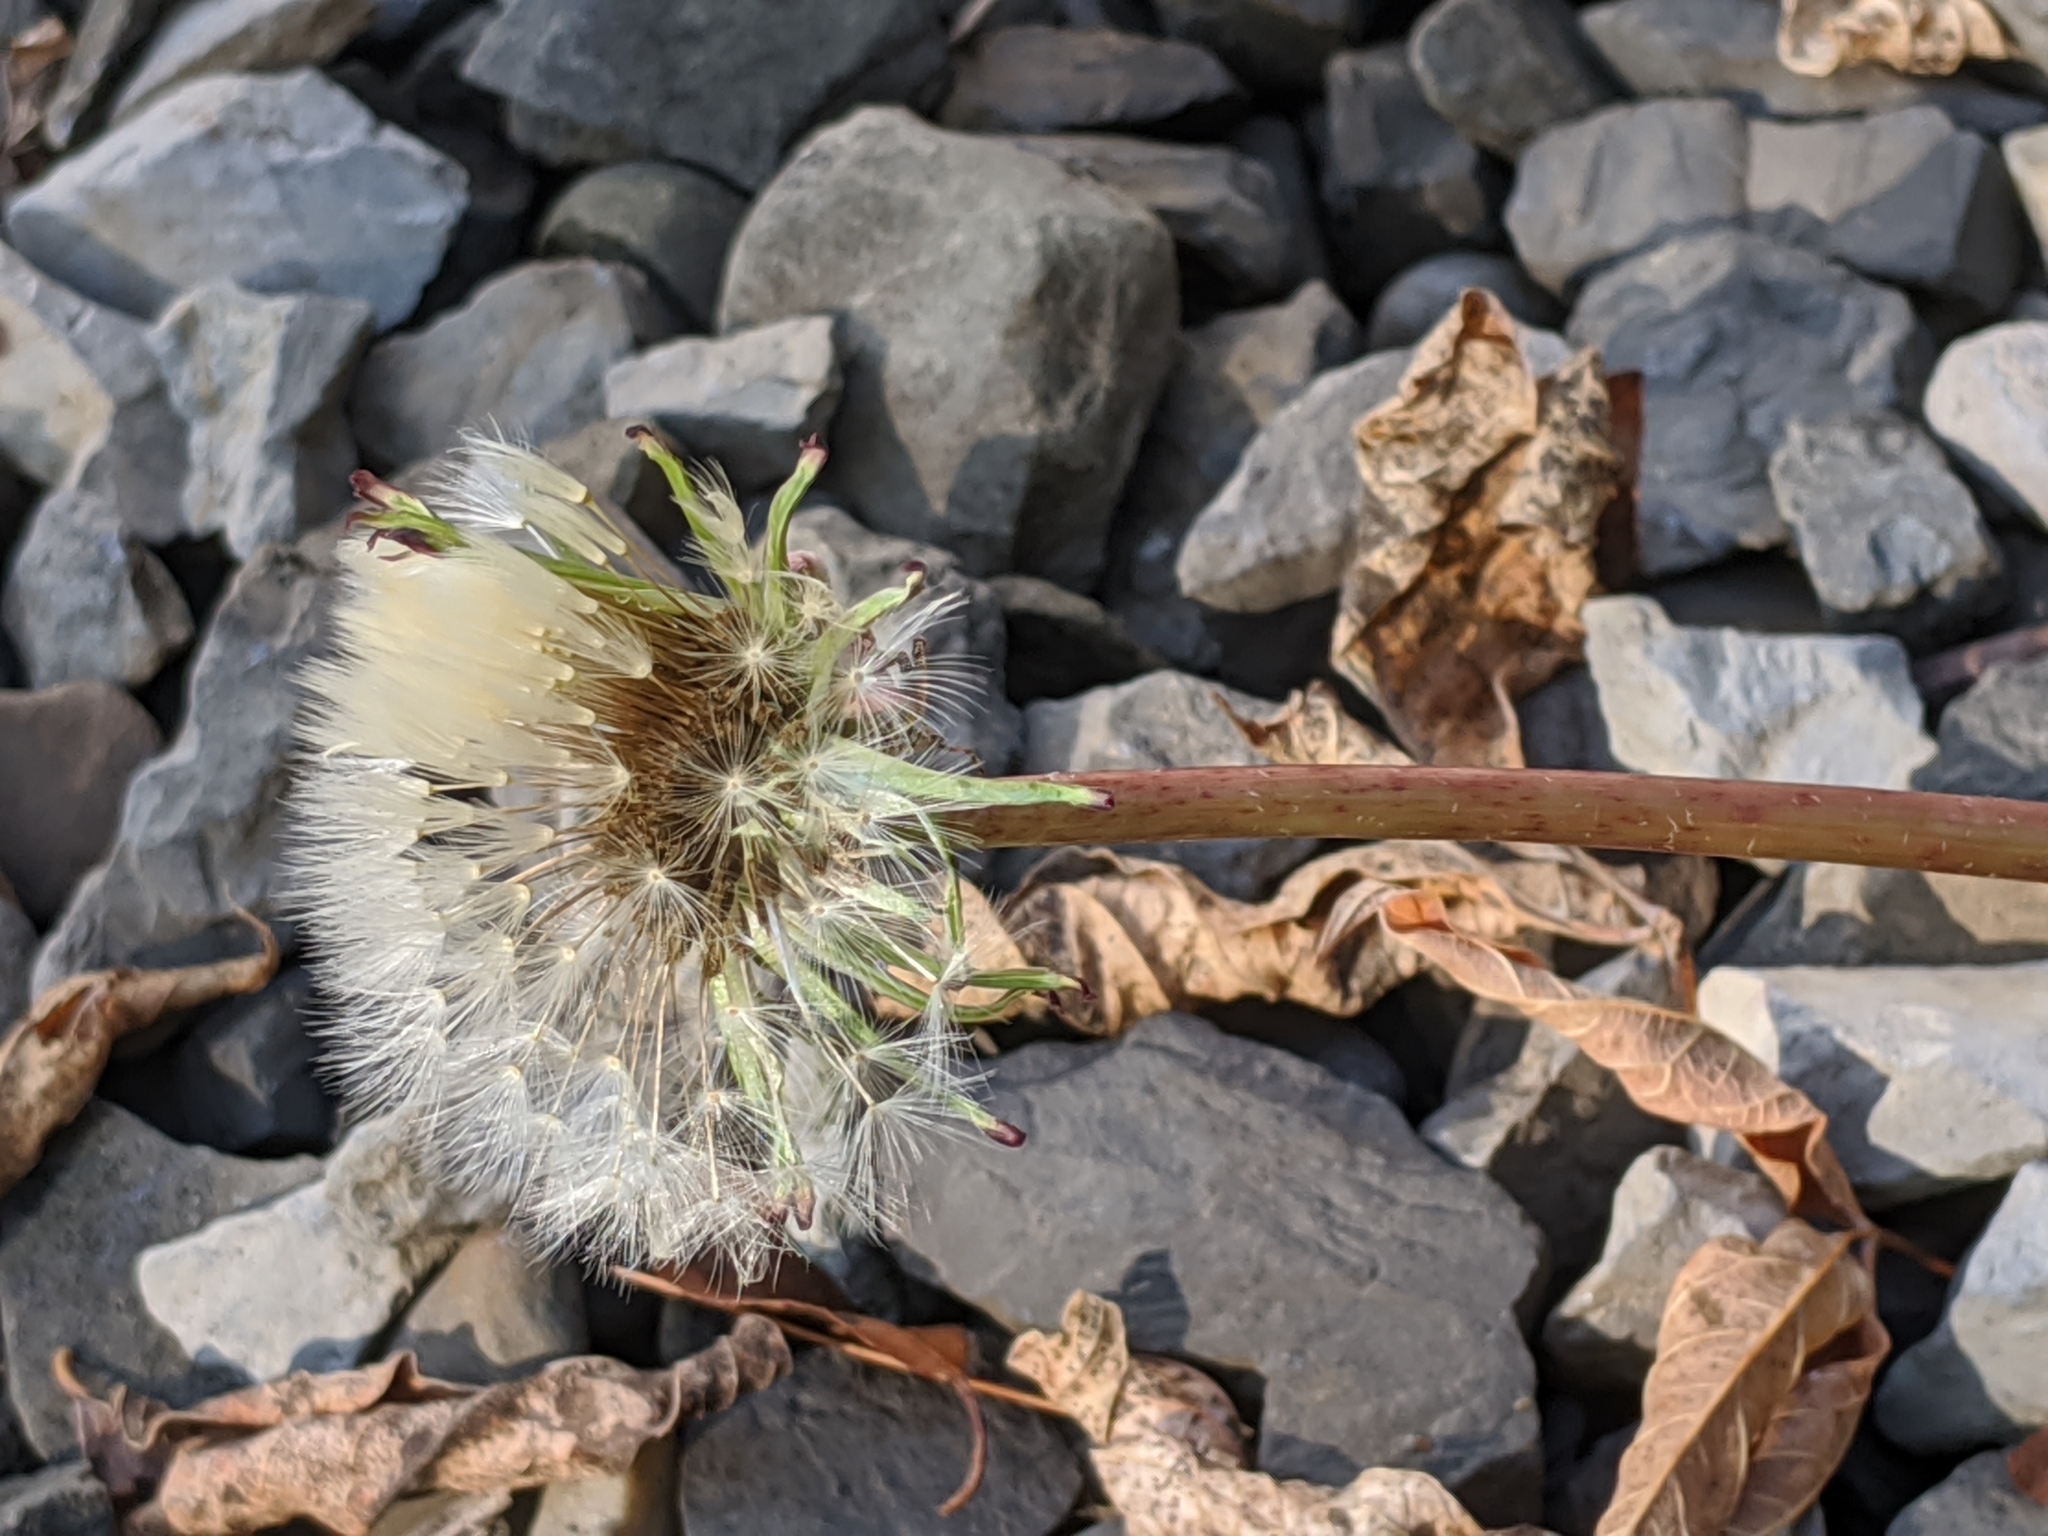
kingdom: Plantae
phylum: Tracheophyta
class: Magnoliopsida
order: Asterales
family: Asteraceae
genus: Taraxacum
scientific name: Taraxacum officinale
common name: Common dandelion
